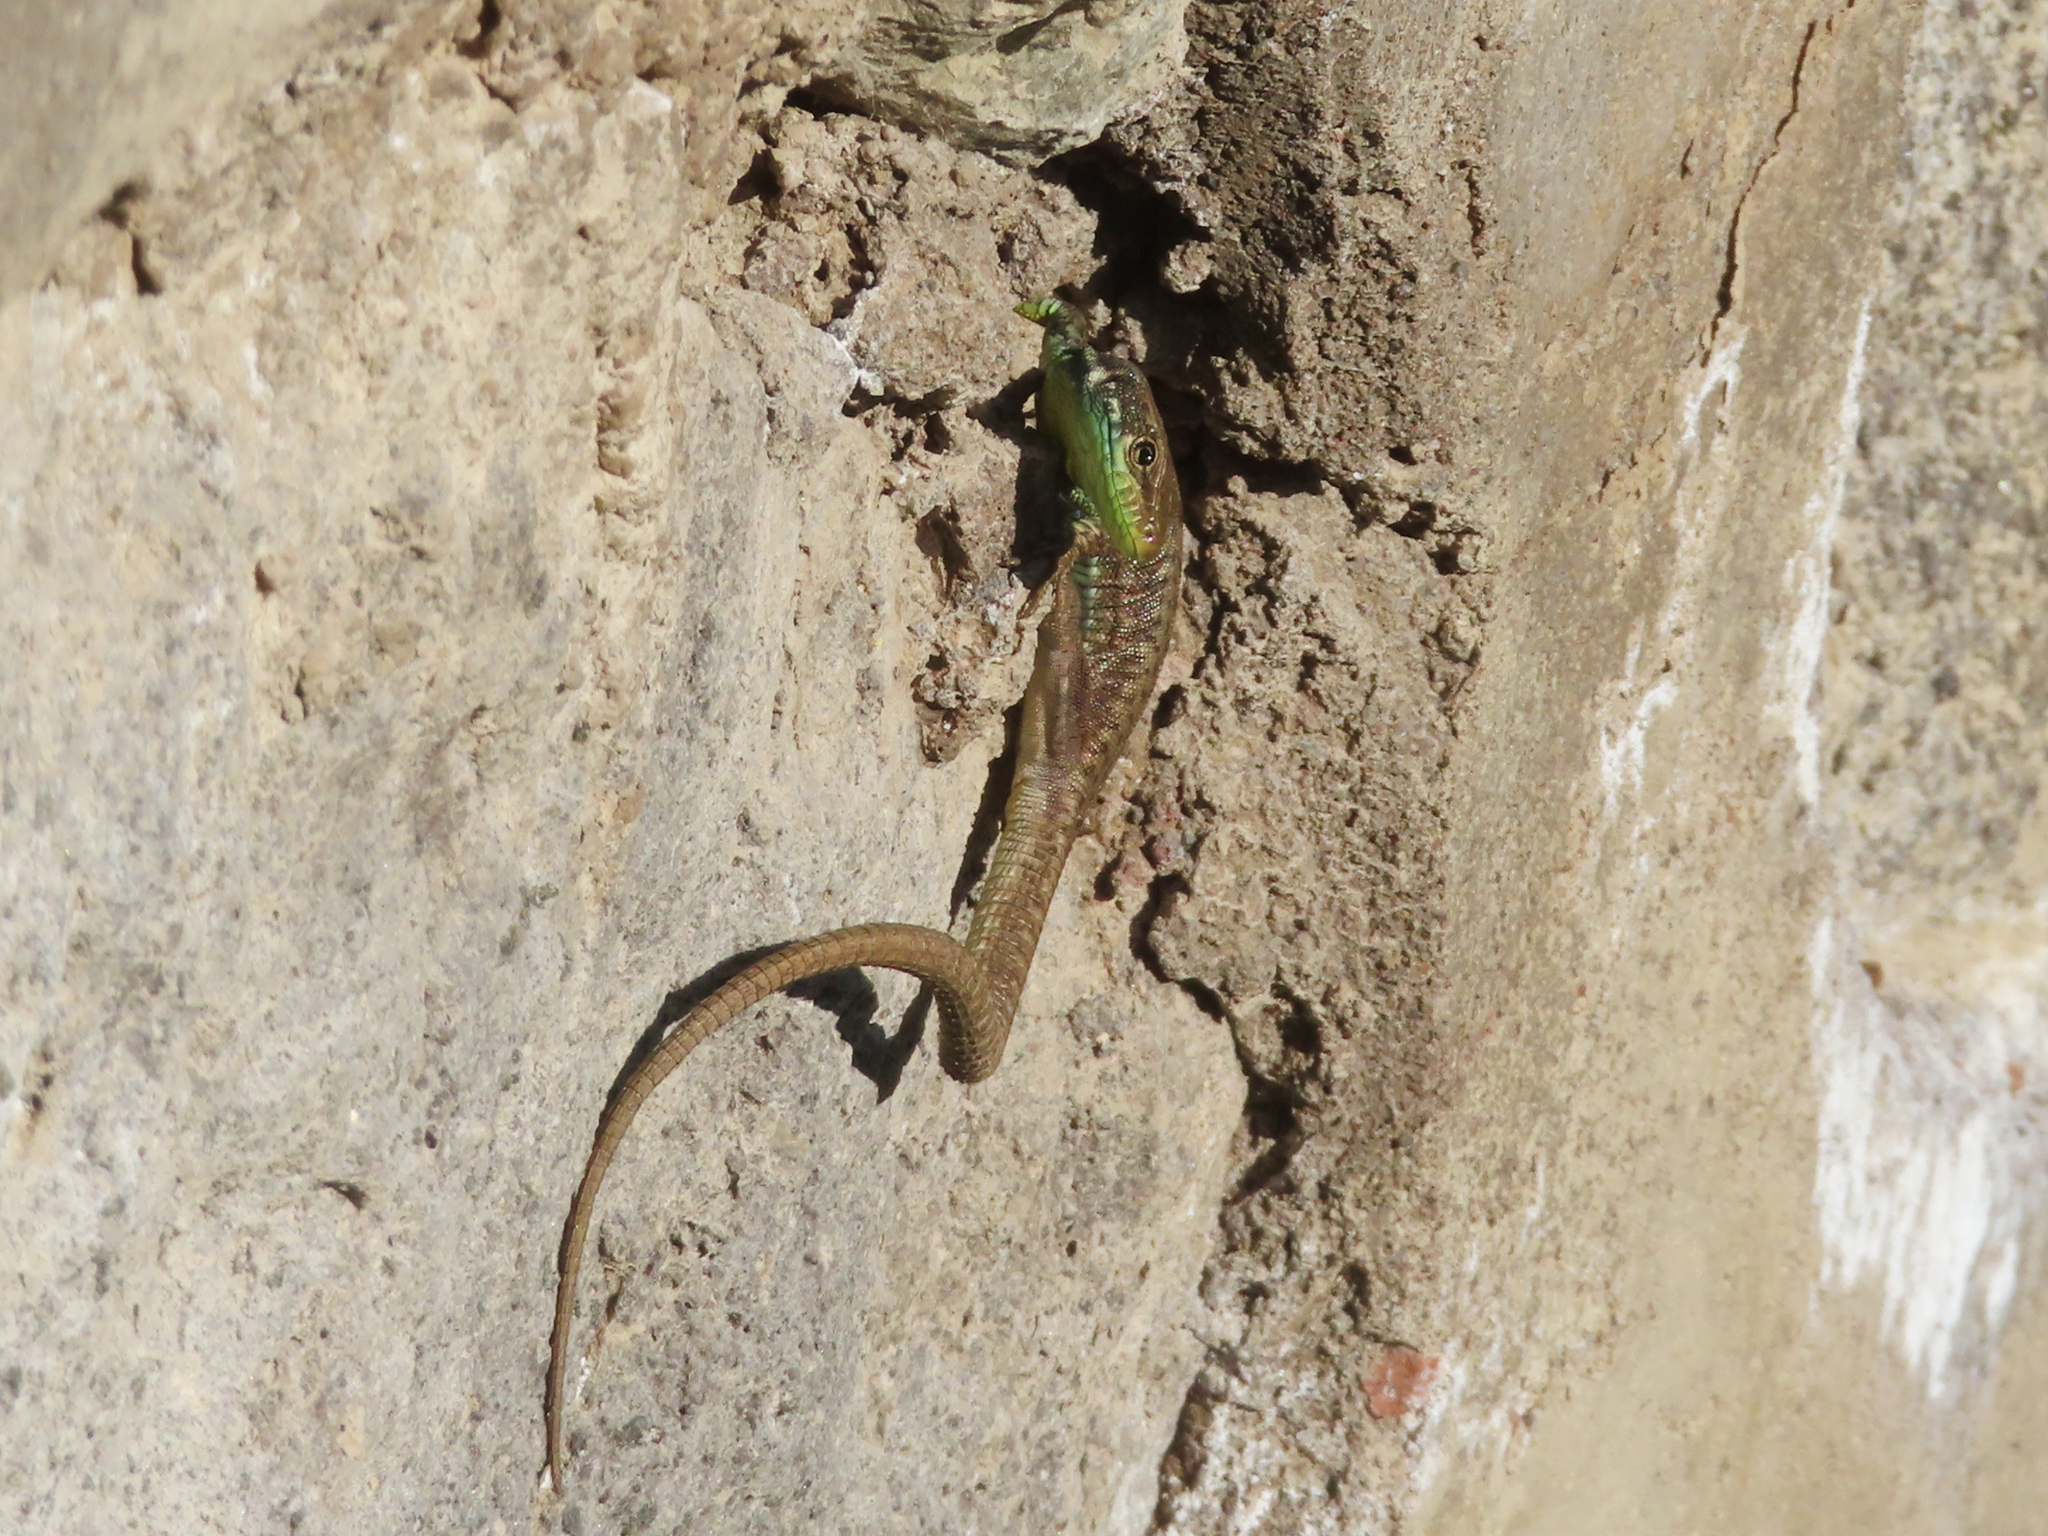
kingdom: Animalia
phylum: Chordata
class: Squamata
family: Lacertidae
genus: Darevskia
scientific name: Darevskia raddei
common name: Radde's lizard
